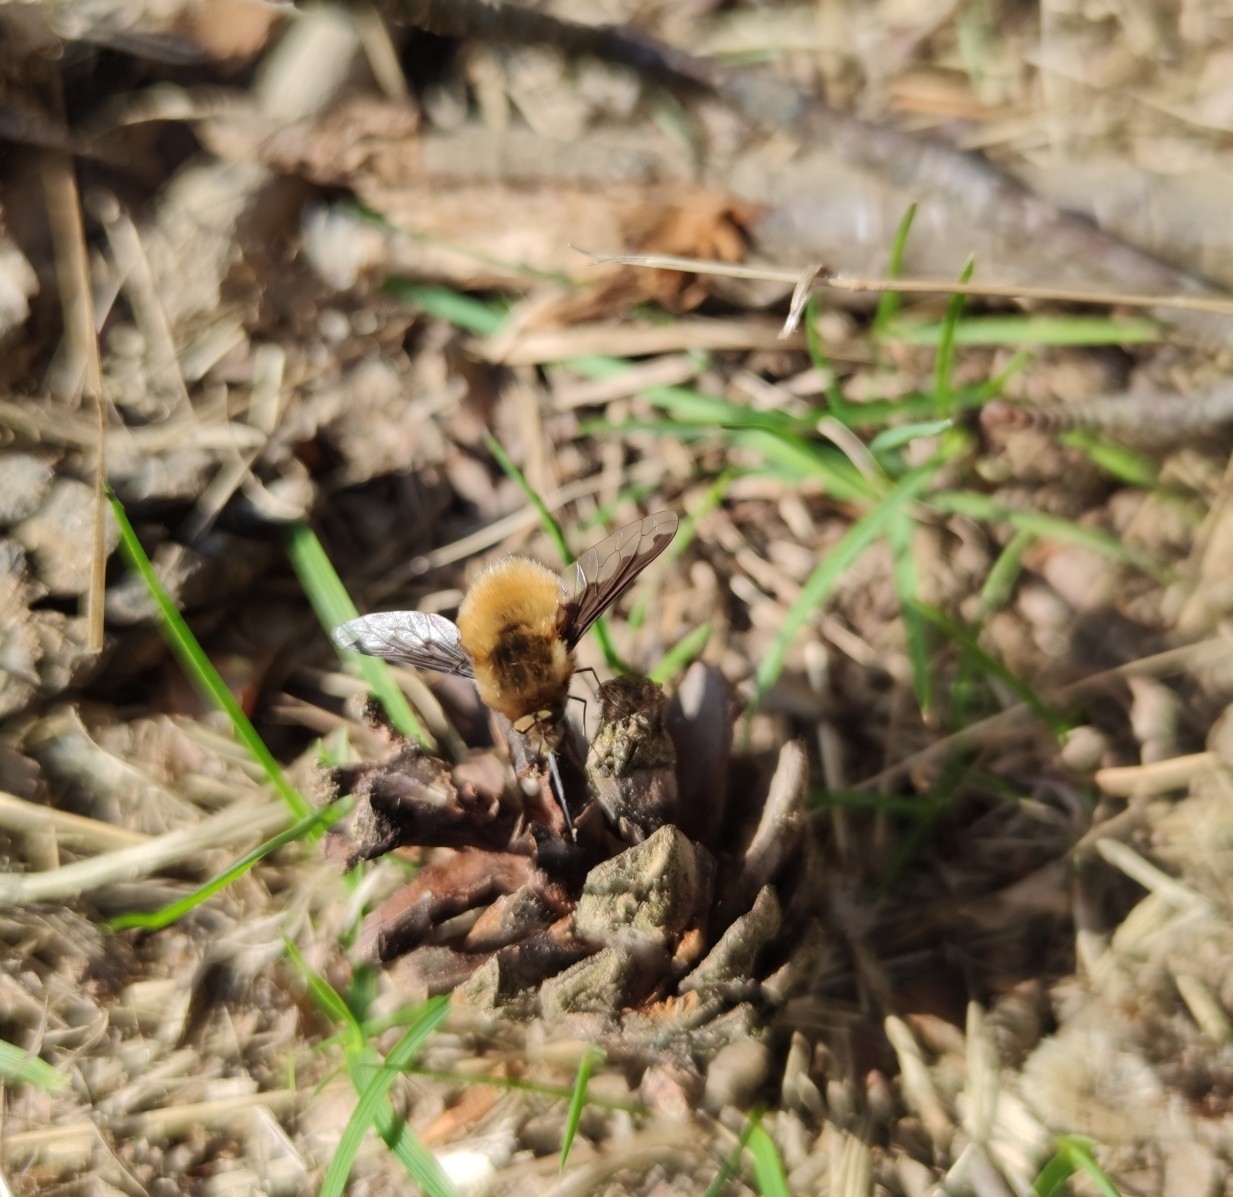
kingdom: Animalia
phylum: Arthropoda
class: Insecta
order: Diptera
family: Bombyliidae
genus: Bombylius
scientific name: Bombylius major
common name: Bee fly
